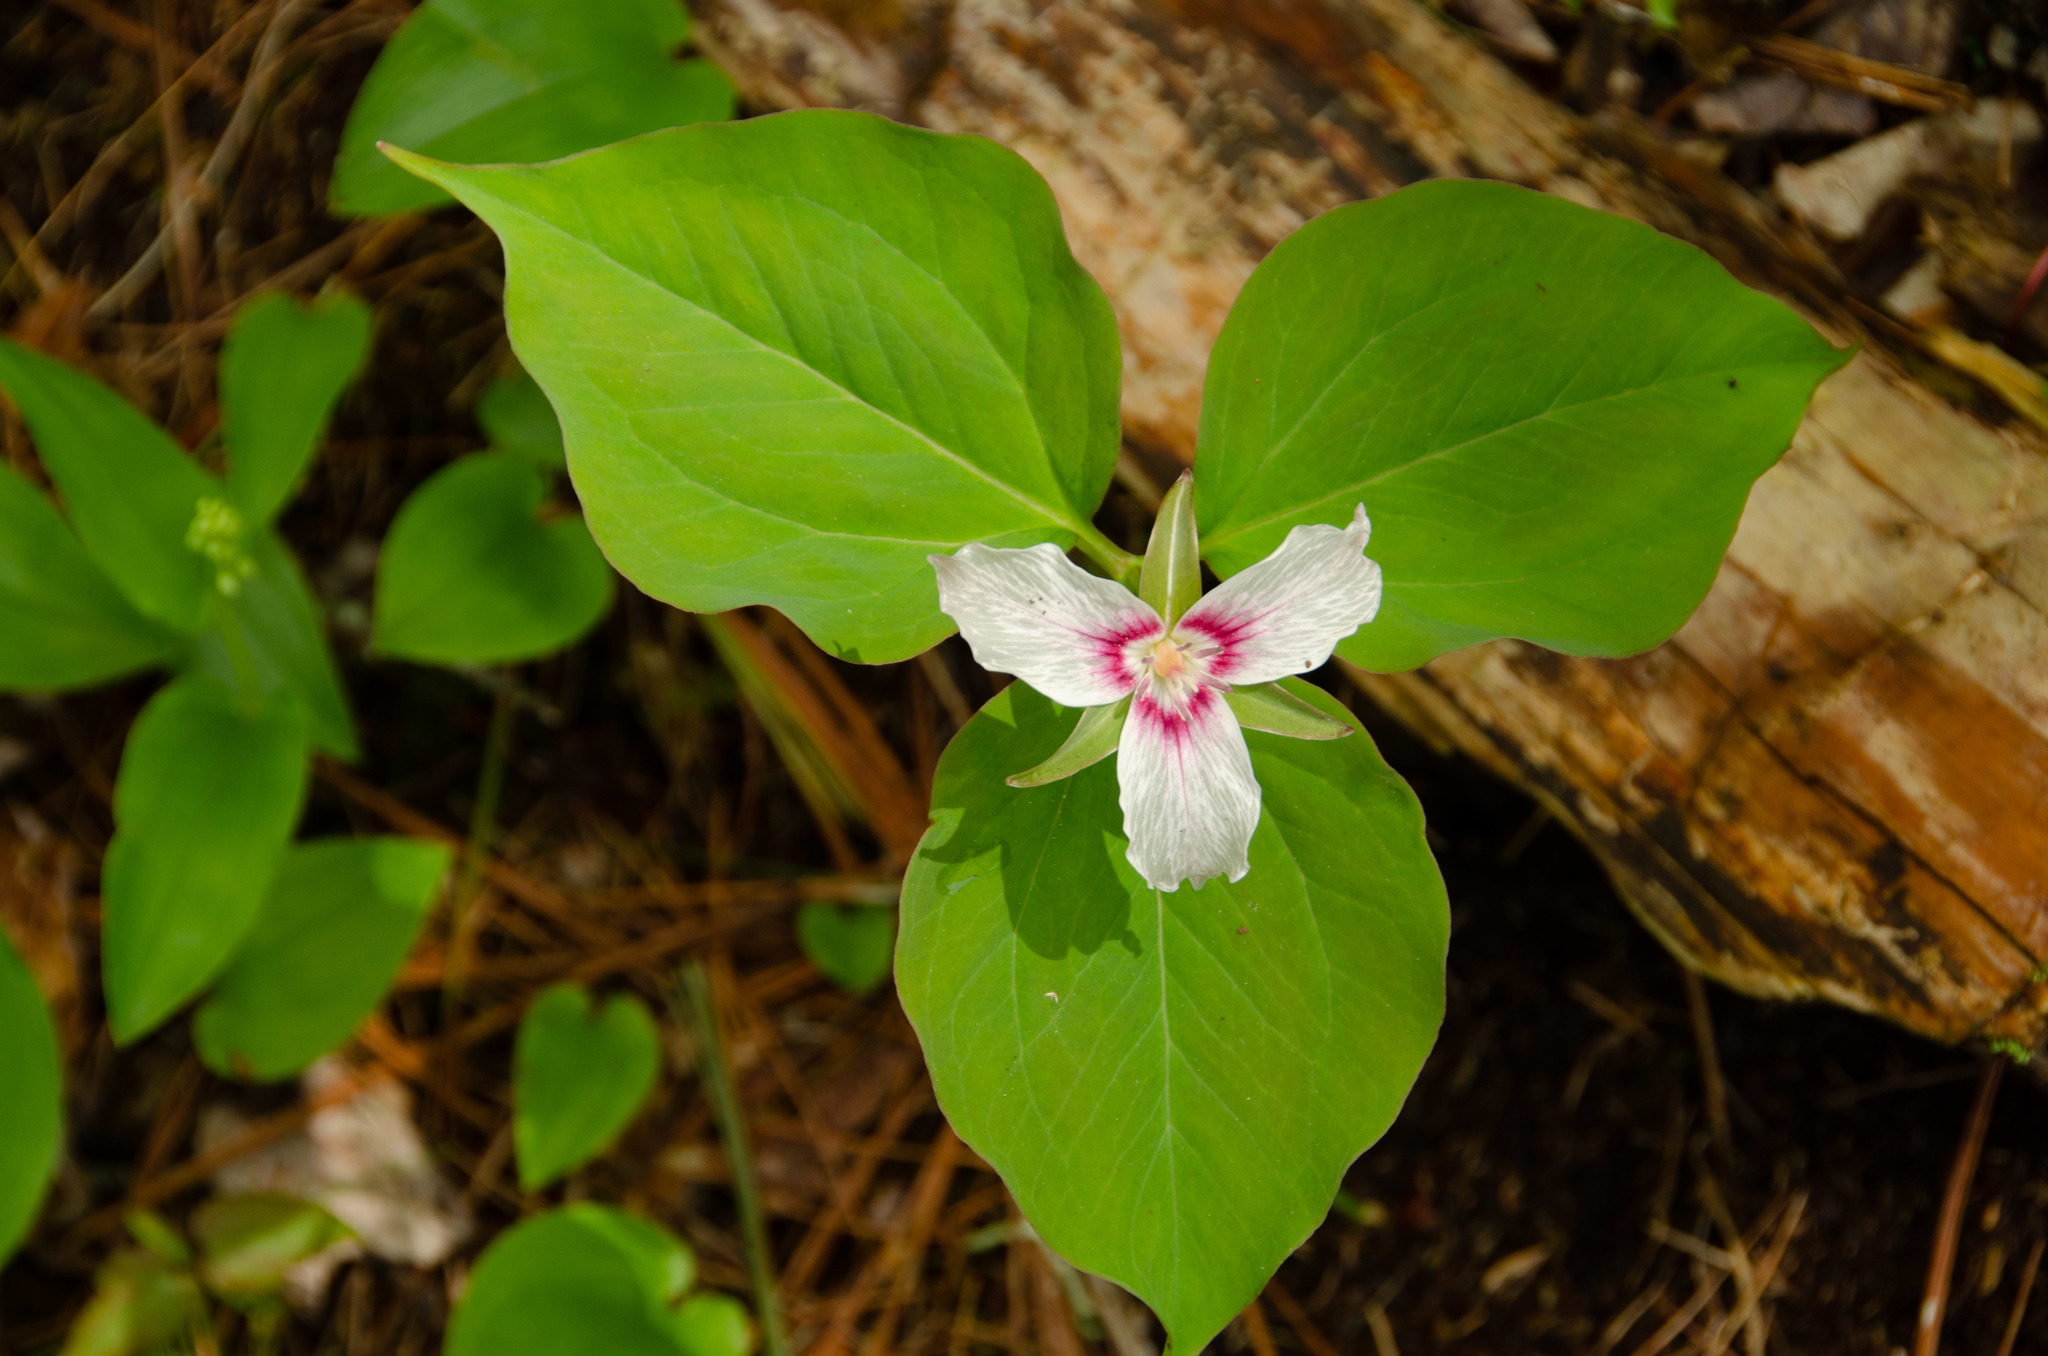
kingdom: Plantae
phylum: Tracheophyta
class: Liliopsida
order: Liliales
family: Melanthiaceae
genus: Trillium
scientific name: Trillium undulatum
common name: Paint trillium
